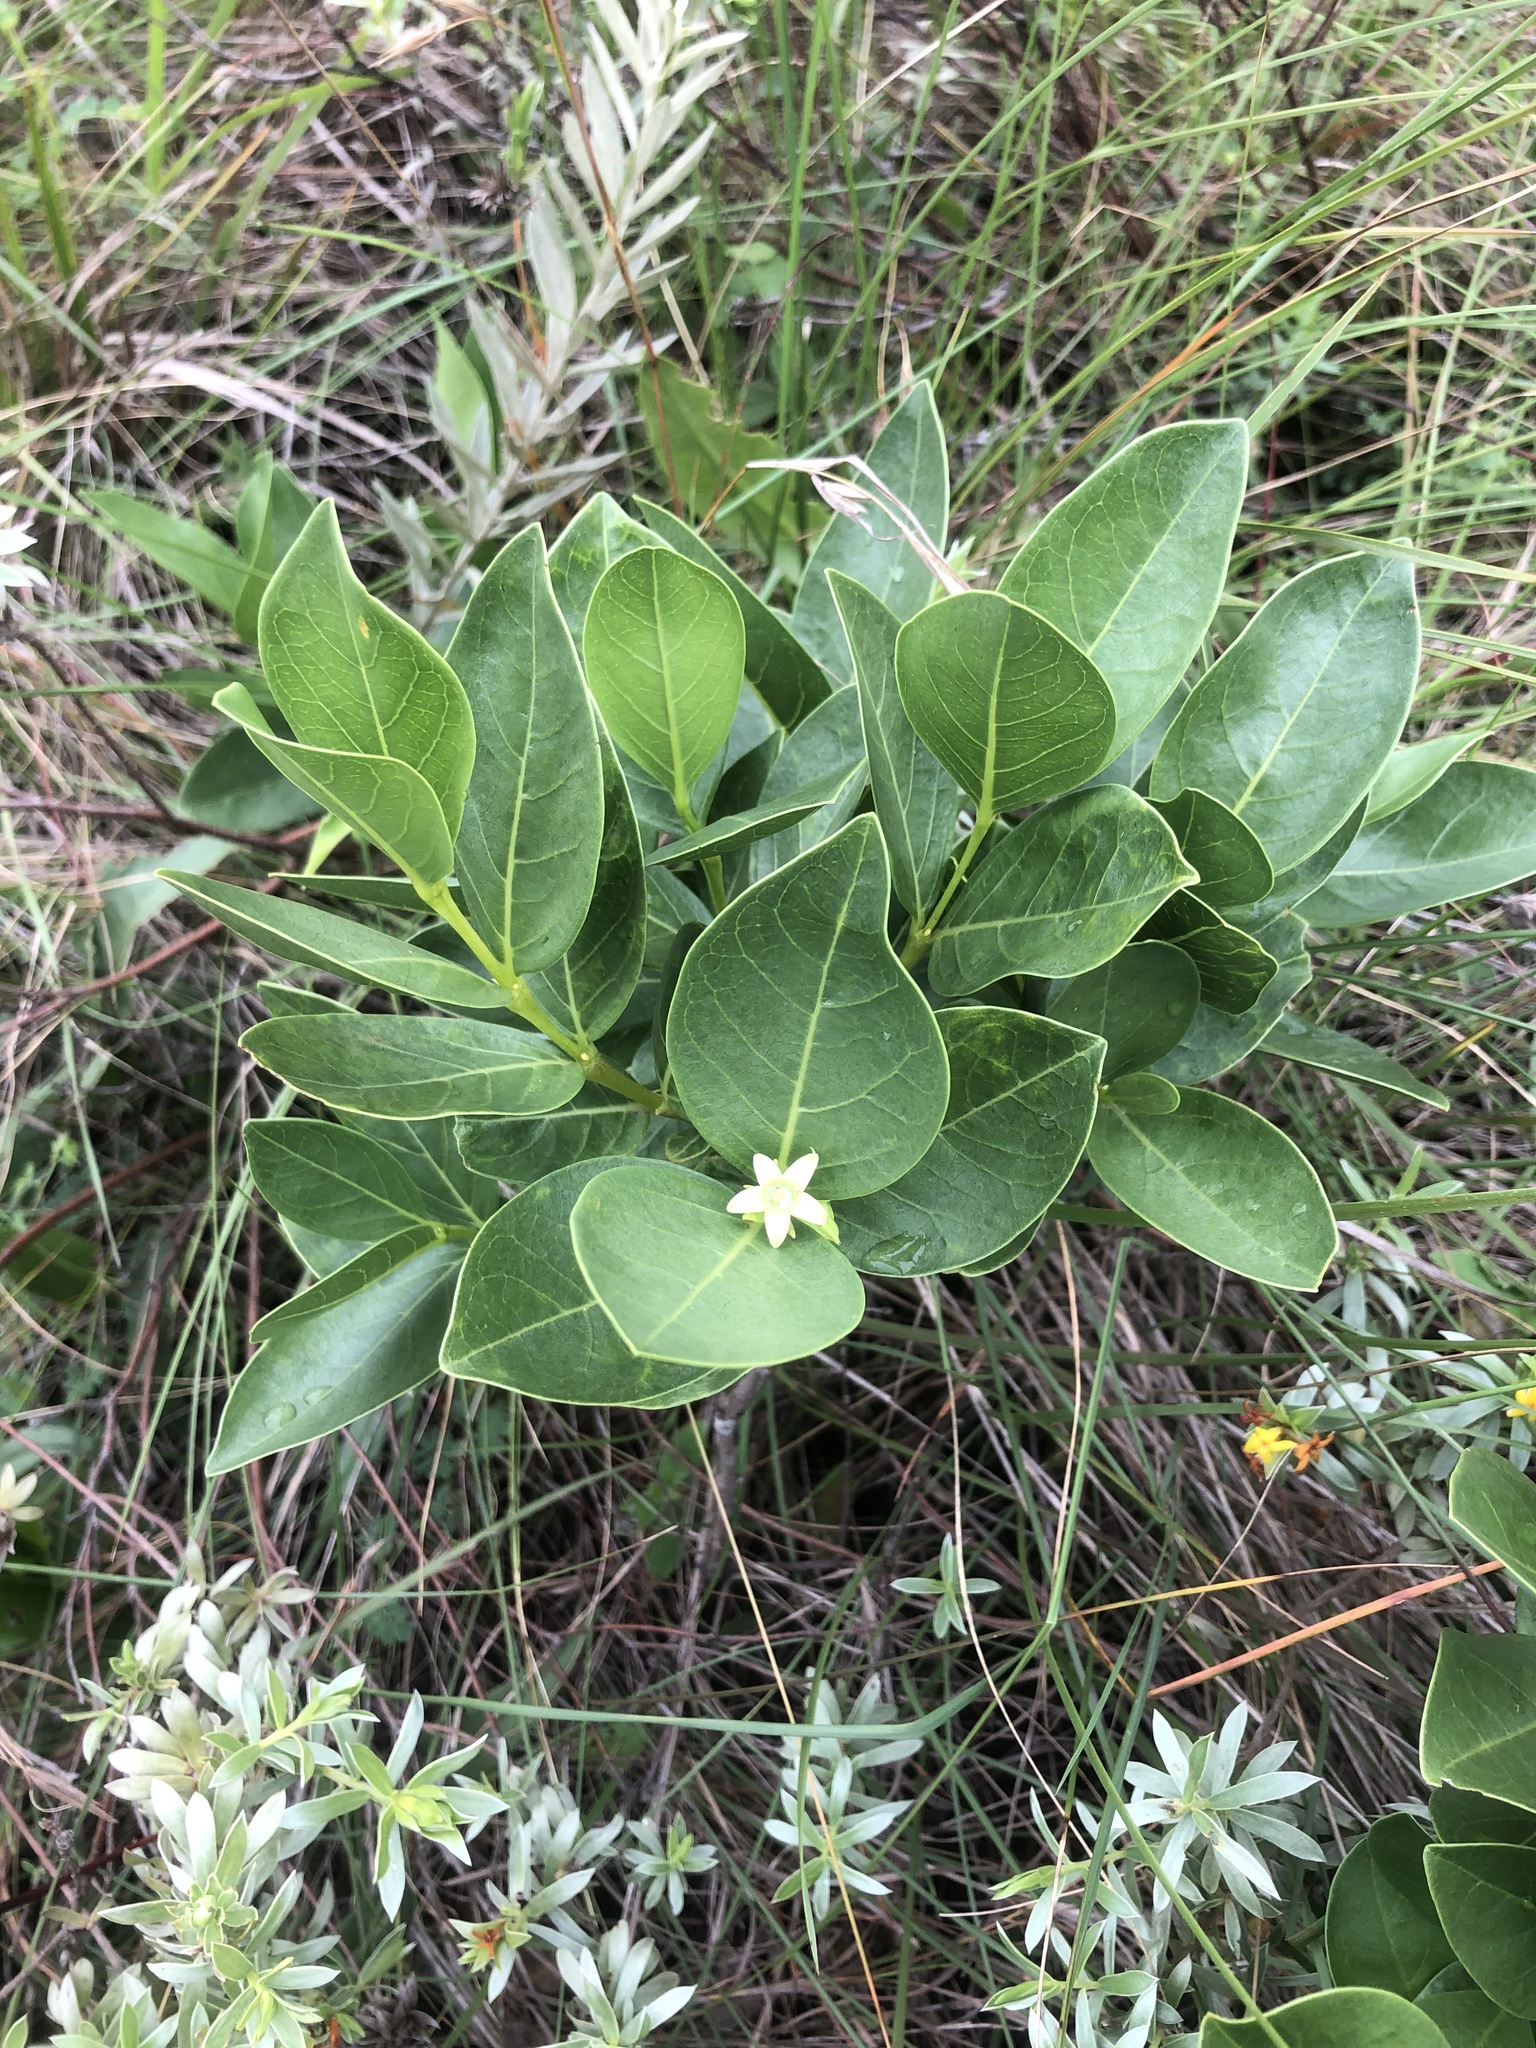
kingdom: Plantae
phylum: Tracheophyta
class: Magnoliopsida
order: Malpighiales
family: Passifloraceae
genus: Basananthe
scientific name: Basananthe sandersonii
